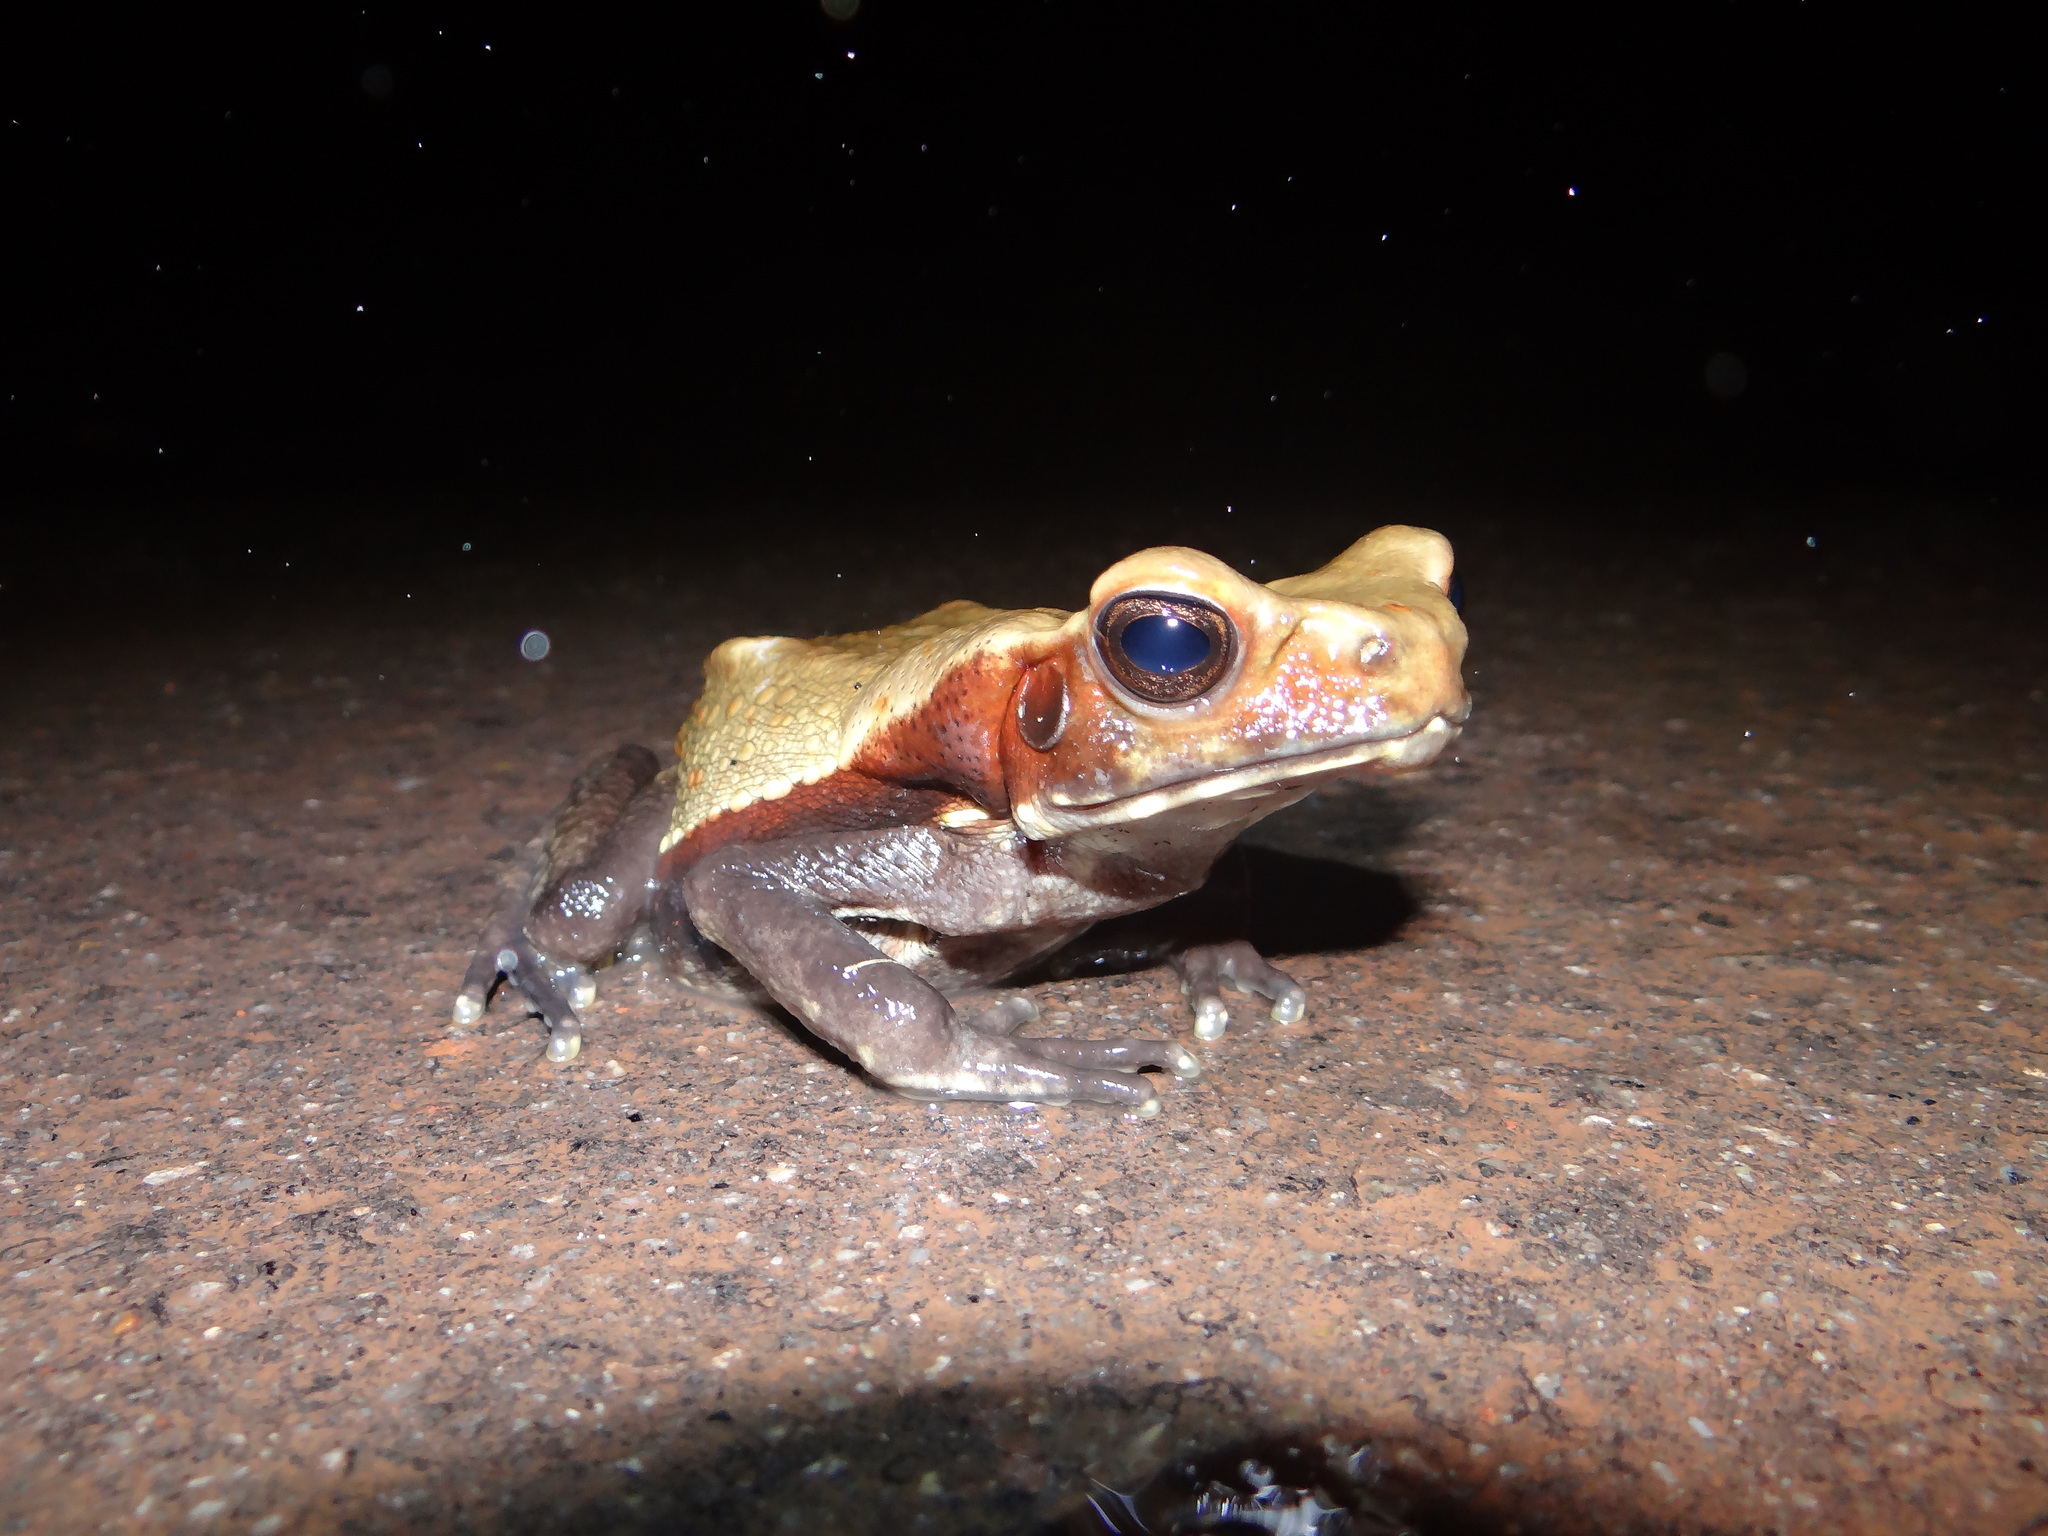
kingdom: Animalia
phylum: Chordata
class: Amphibia
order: Anura
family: Bufonidae
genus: Rhaebo
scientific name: Rhaebo guttatus
